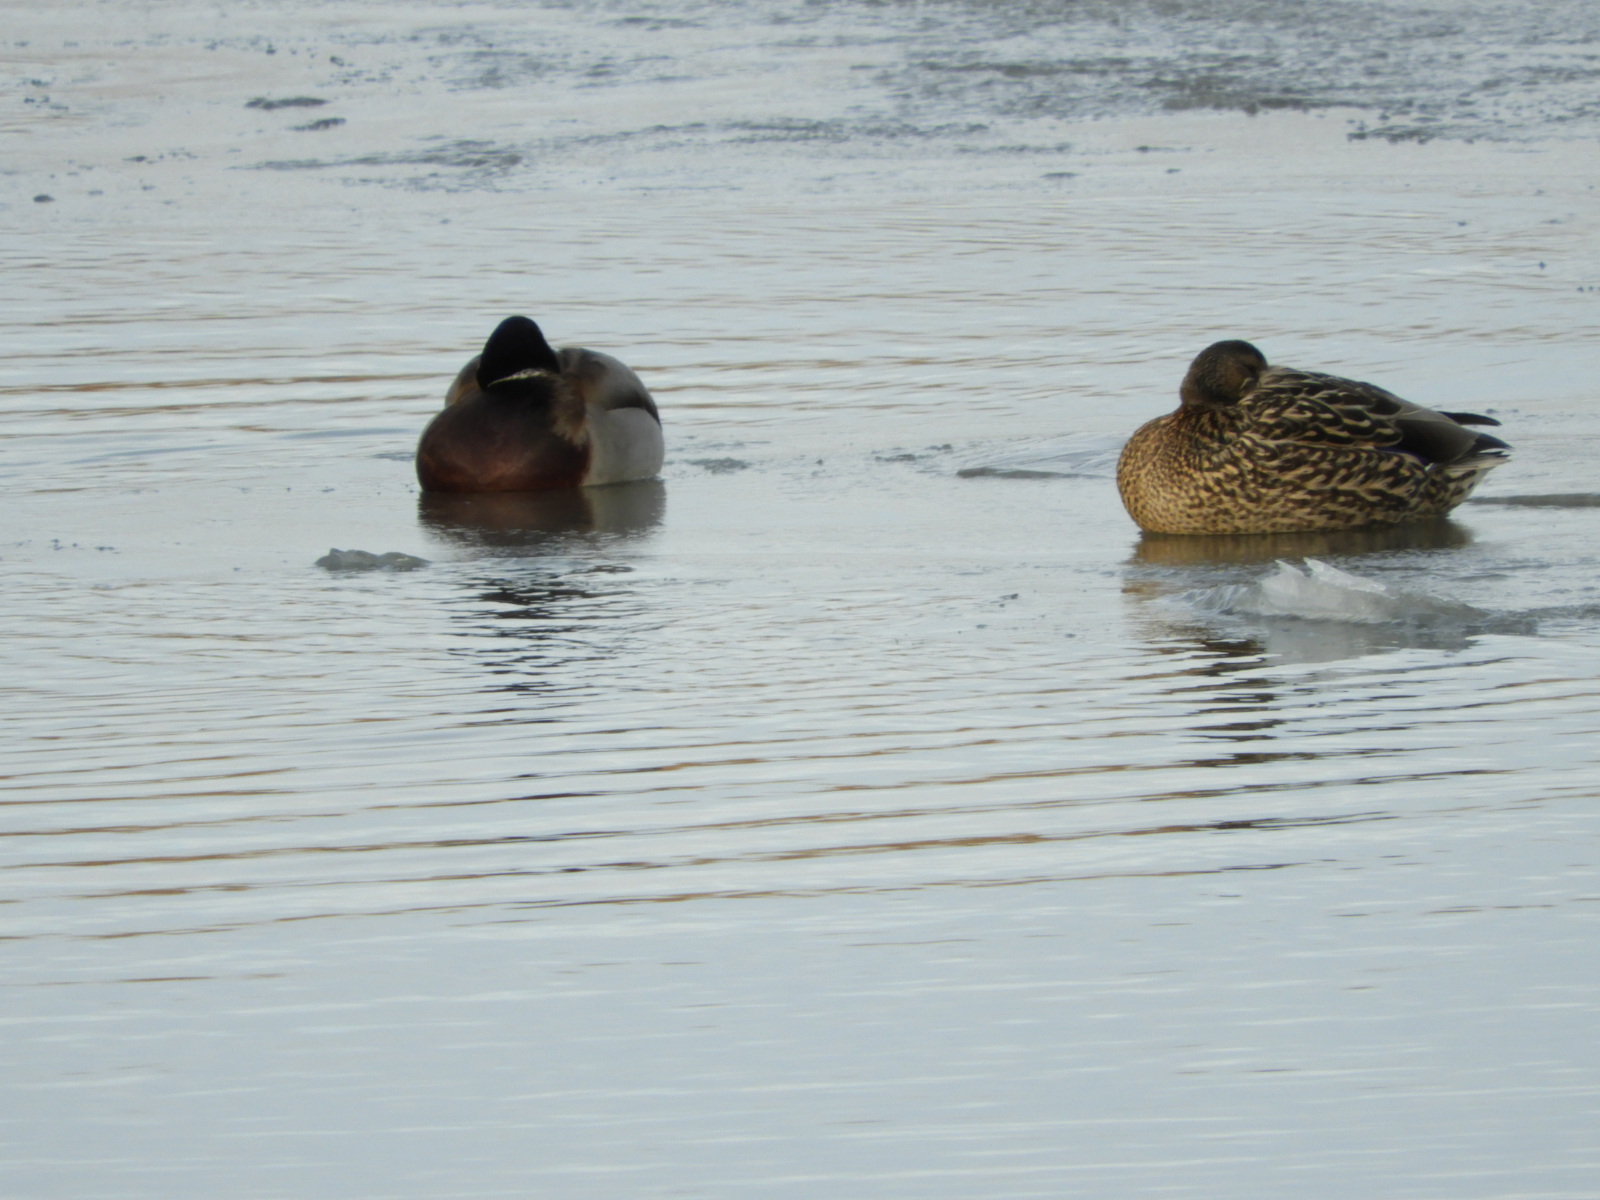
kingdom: Animalia
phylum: Chordata
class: Aves
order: Anseriformes
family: Anatidae
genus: Anas
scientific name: Anas platyrhynchos
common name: Mallard
